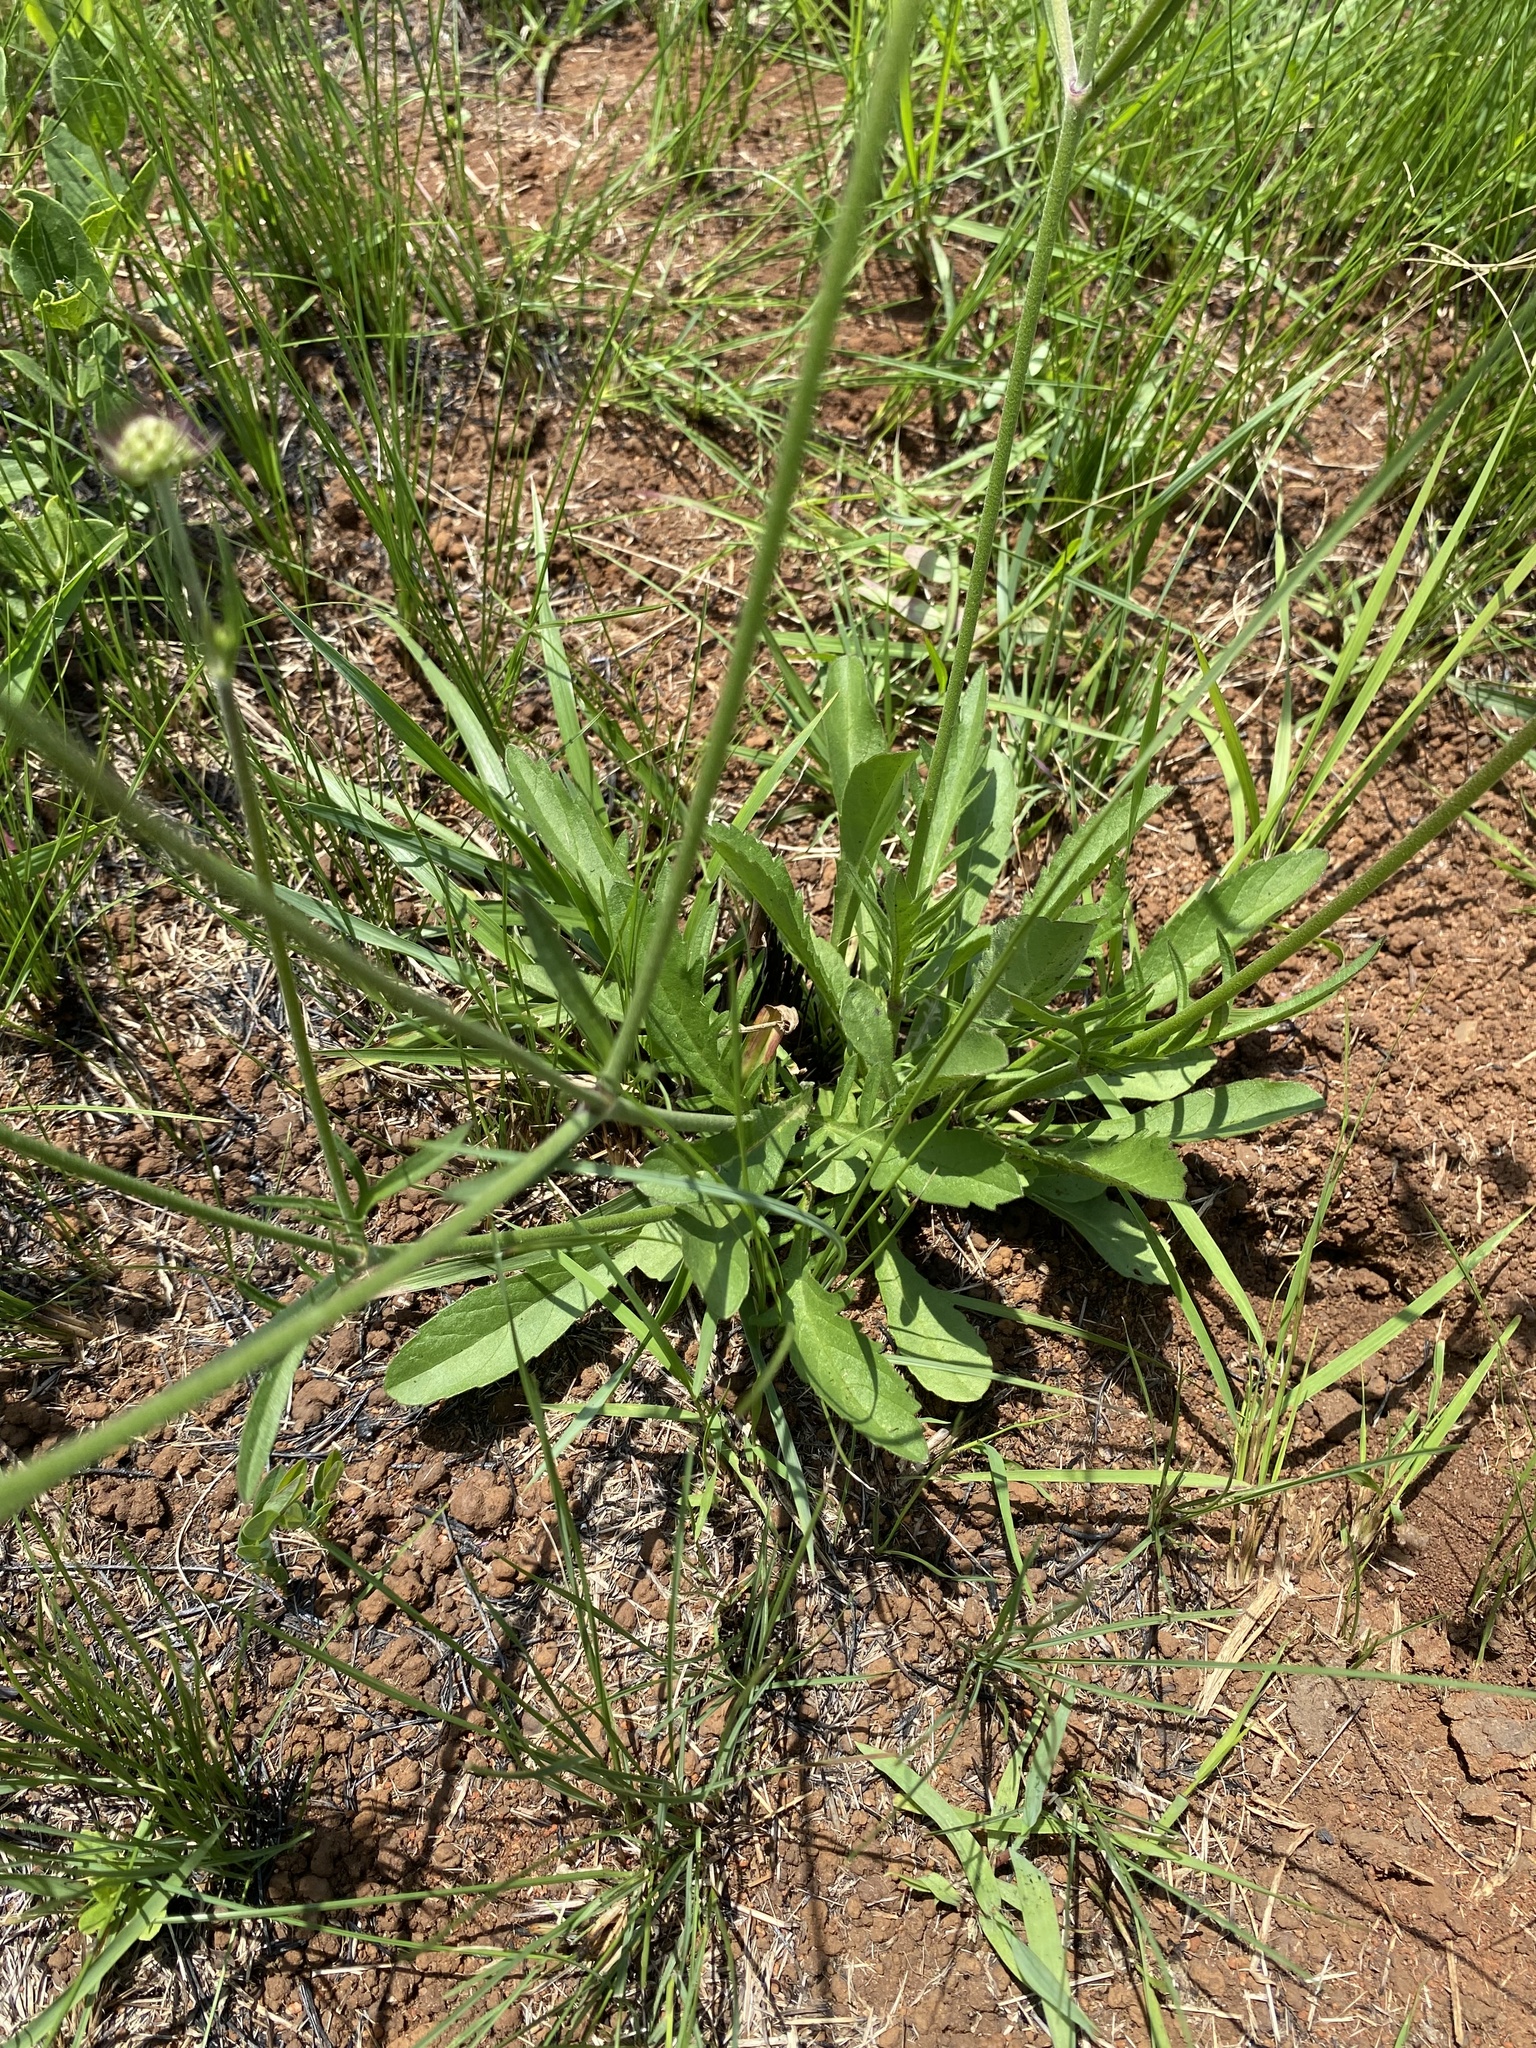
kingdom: Plantae
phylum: Tracheophyta
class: Magnoliopsida
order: Dipsacales
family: Caprifoliaceae
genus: Scabiosa
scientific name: Scabiosa columbaria
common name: Small scabious
